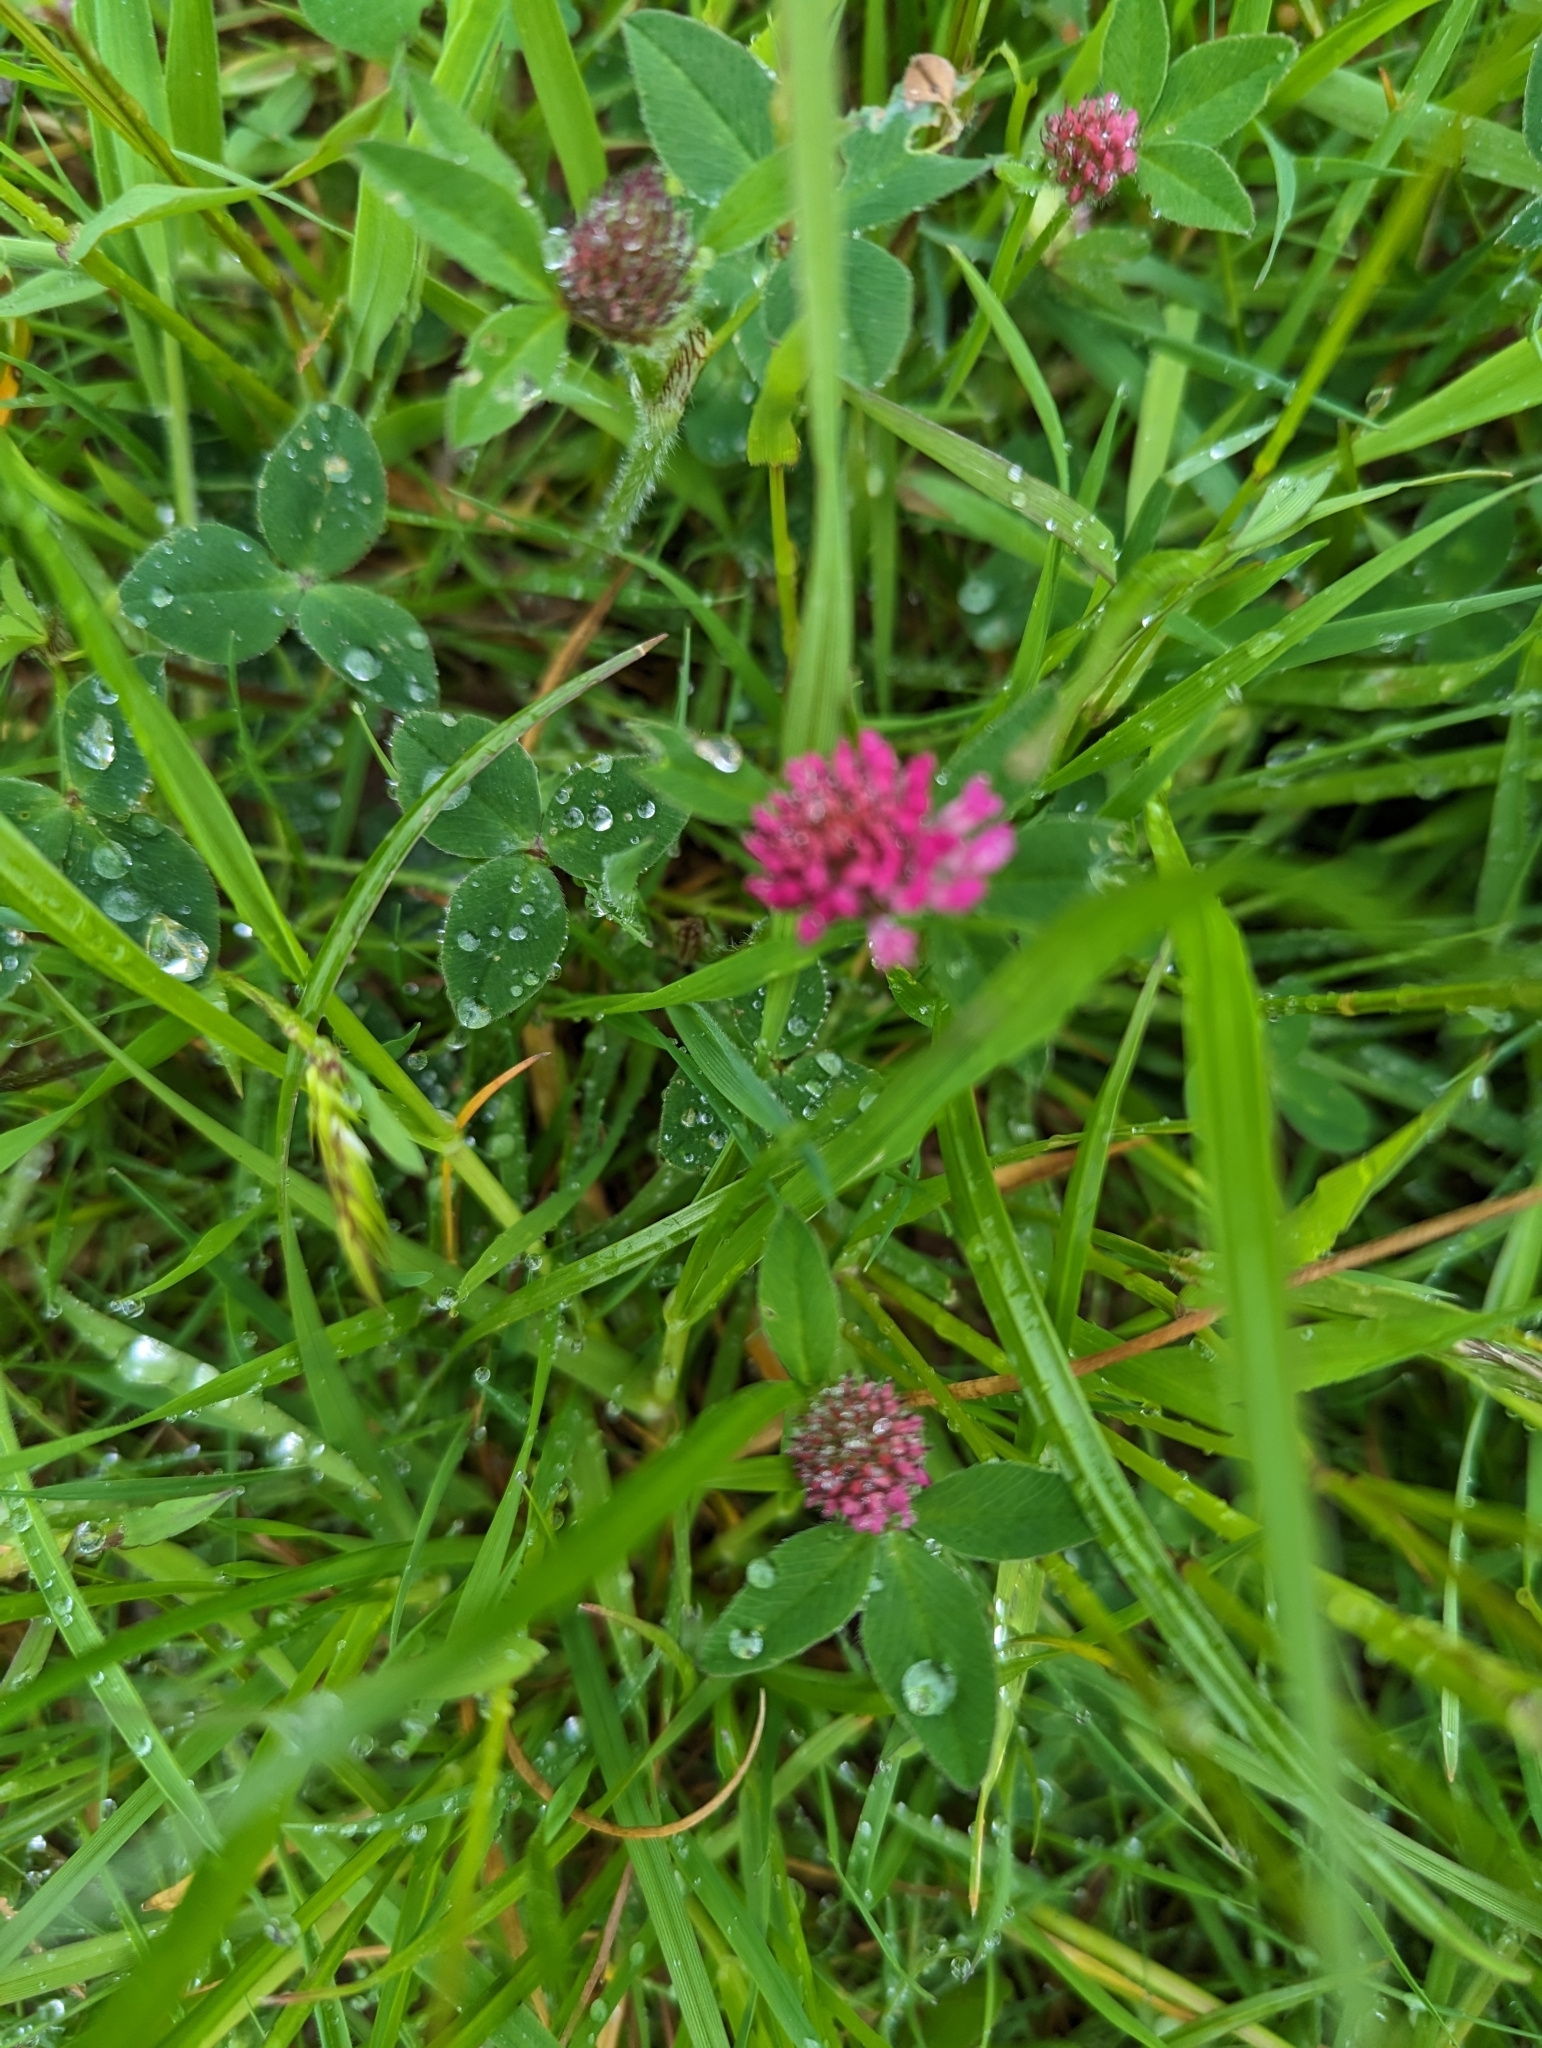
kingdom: Plantae
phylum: Tracheophyta
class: Magnoliopsida
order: Fabales
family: Fabaceae
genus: Trifolium
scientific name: Trifolium pratense
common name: Red clover
